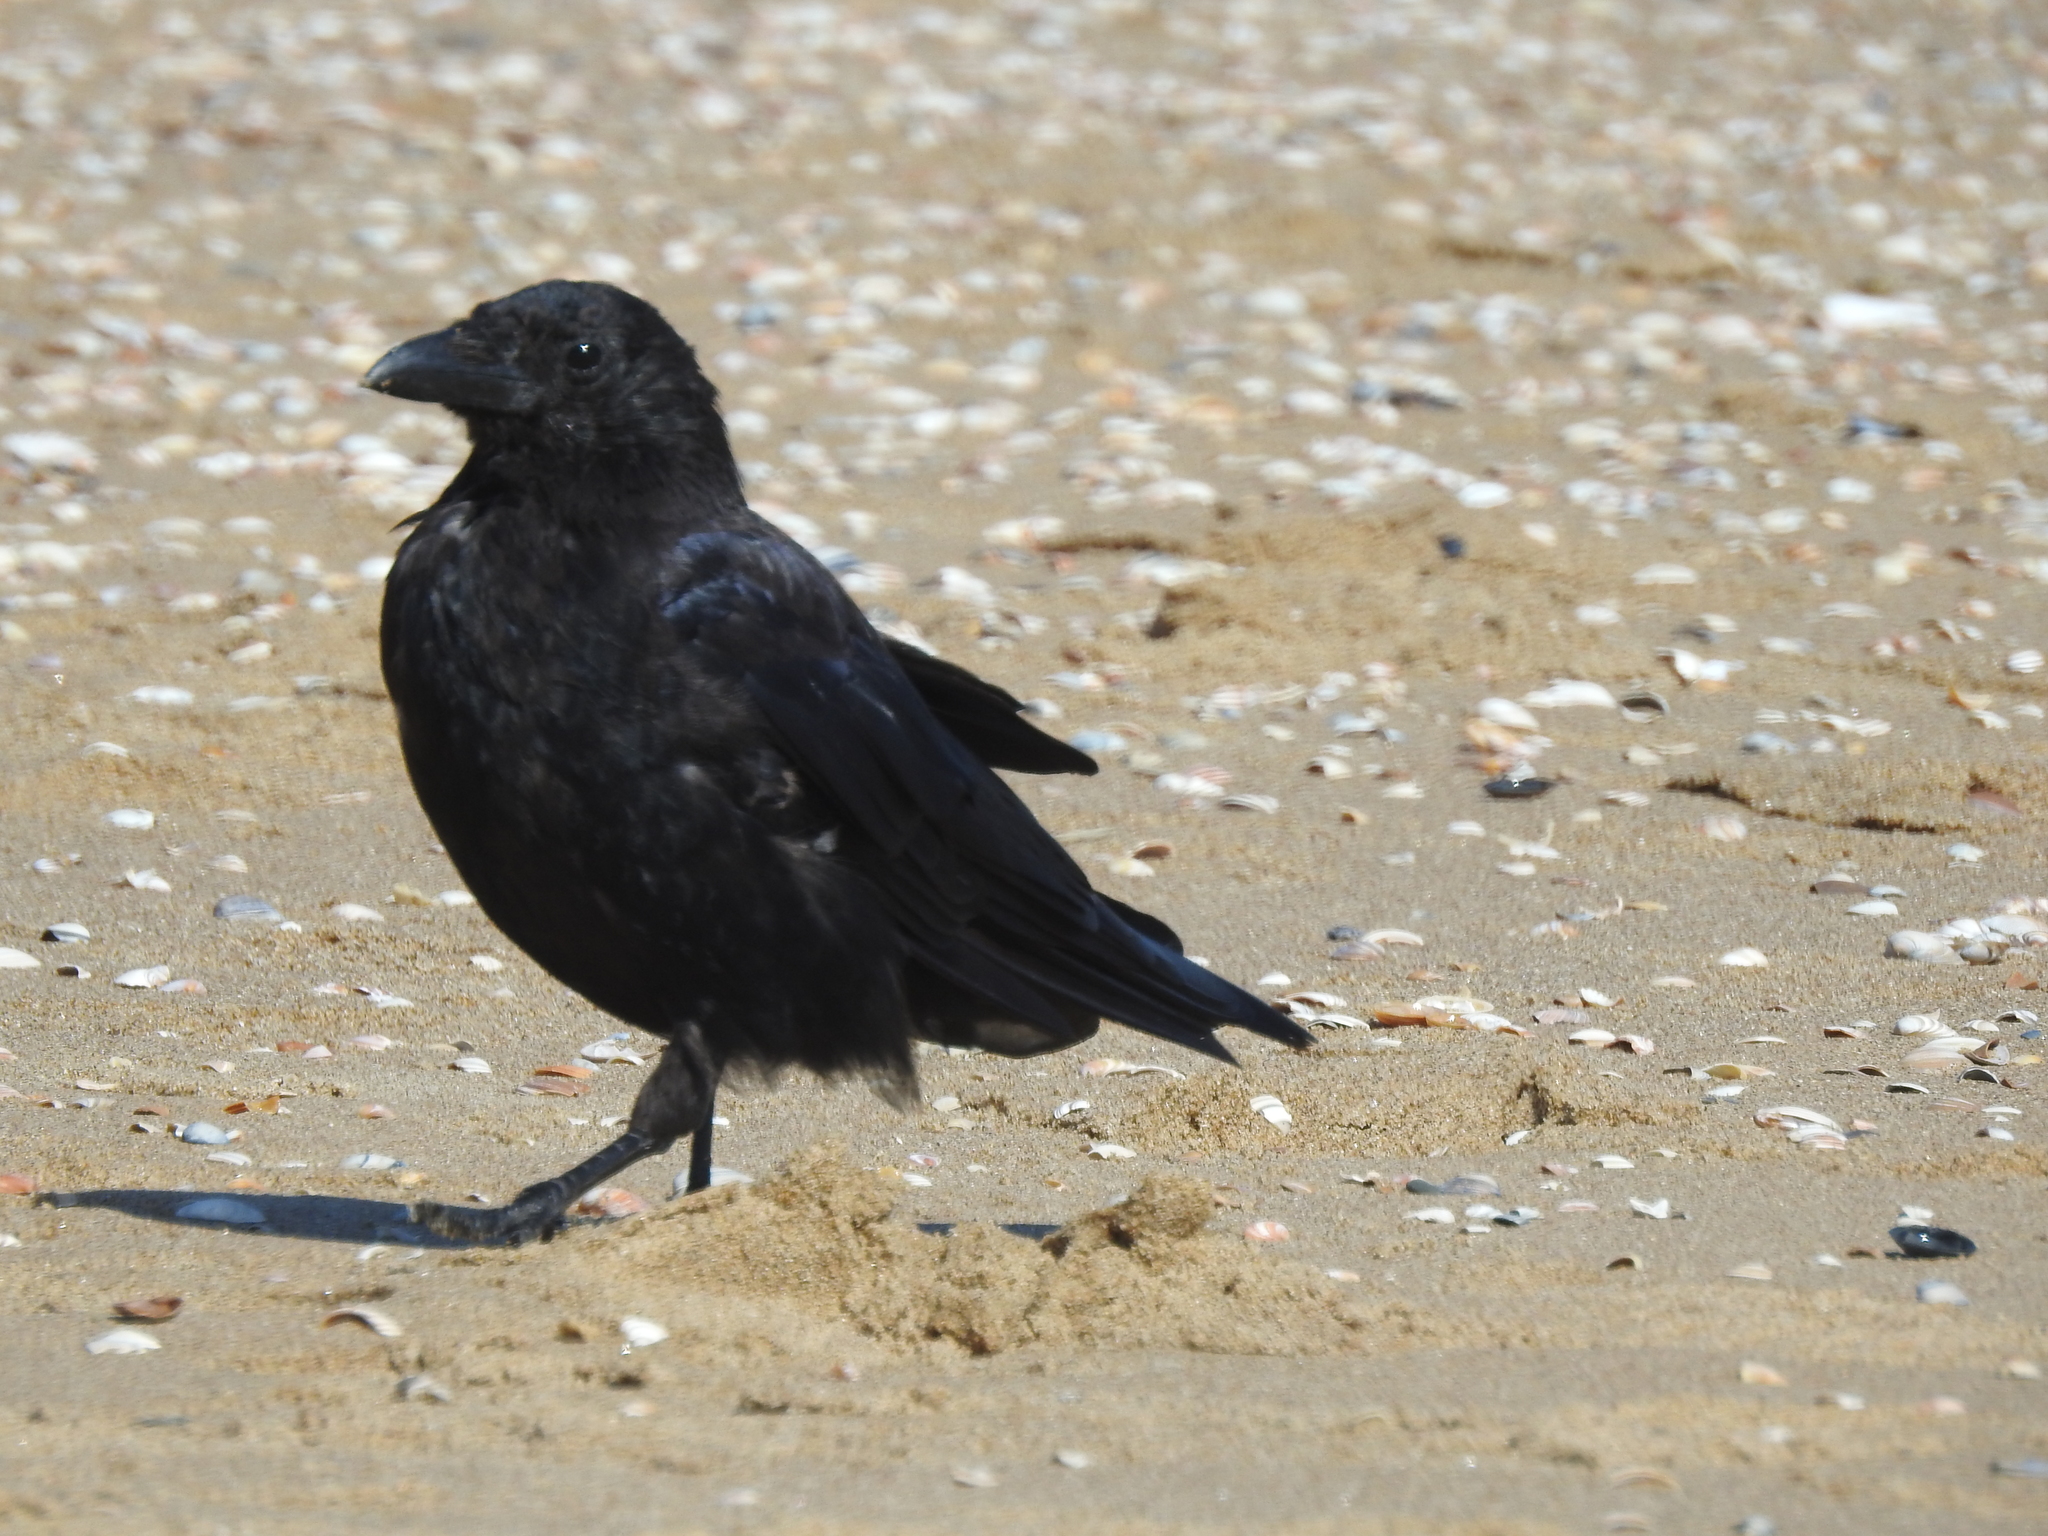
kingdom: Animalia
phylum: Chordata
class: Aves
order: Passeriformes
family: Corvidae
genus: Corvus
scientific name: Corvus corone
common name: Carrion crow
